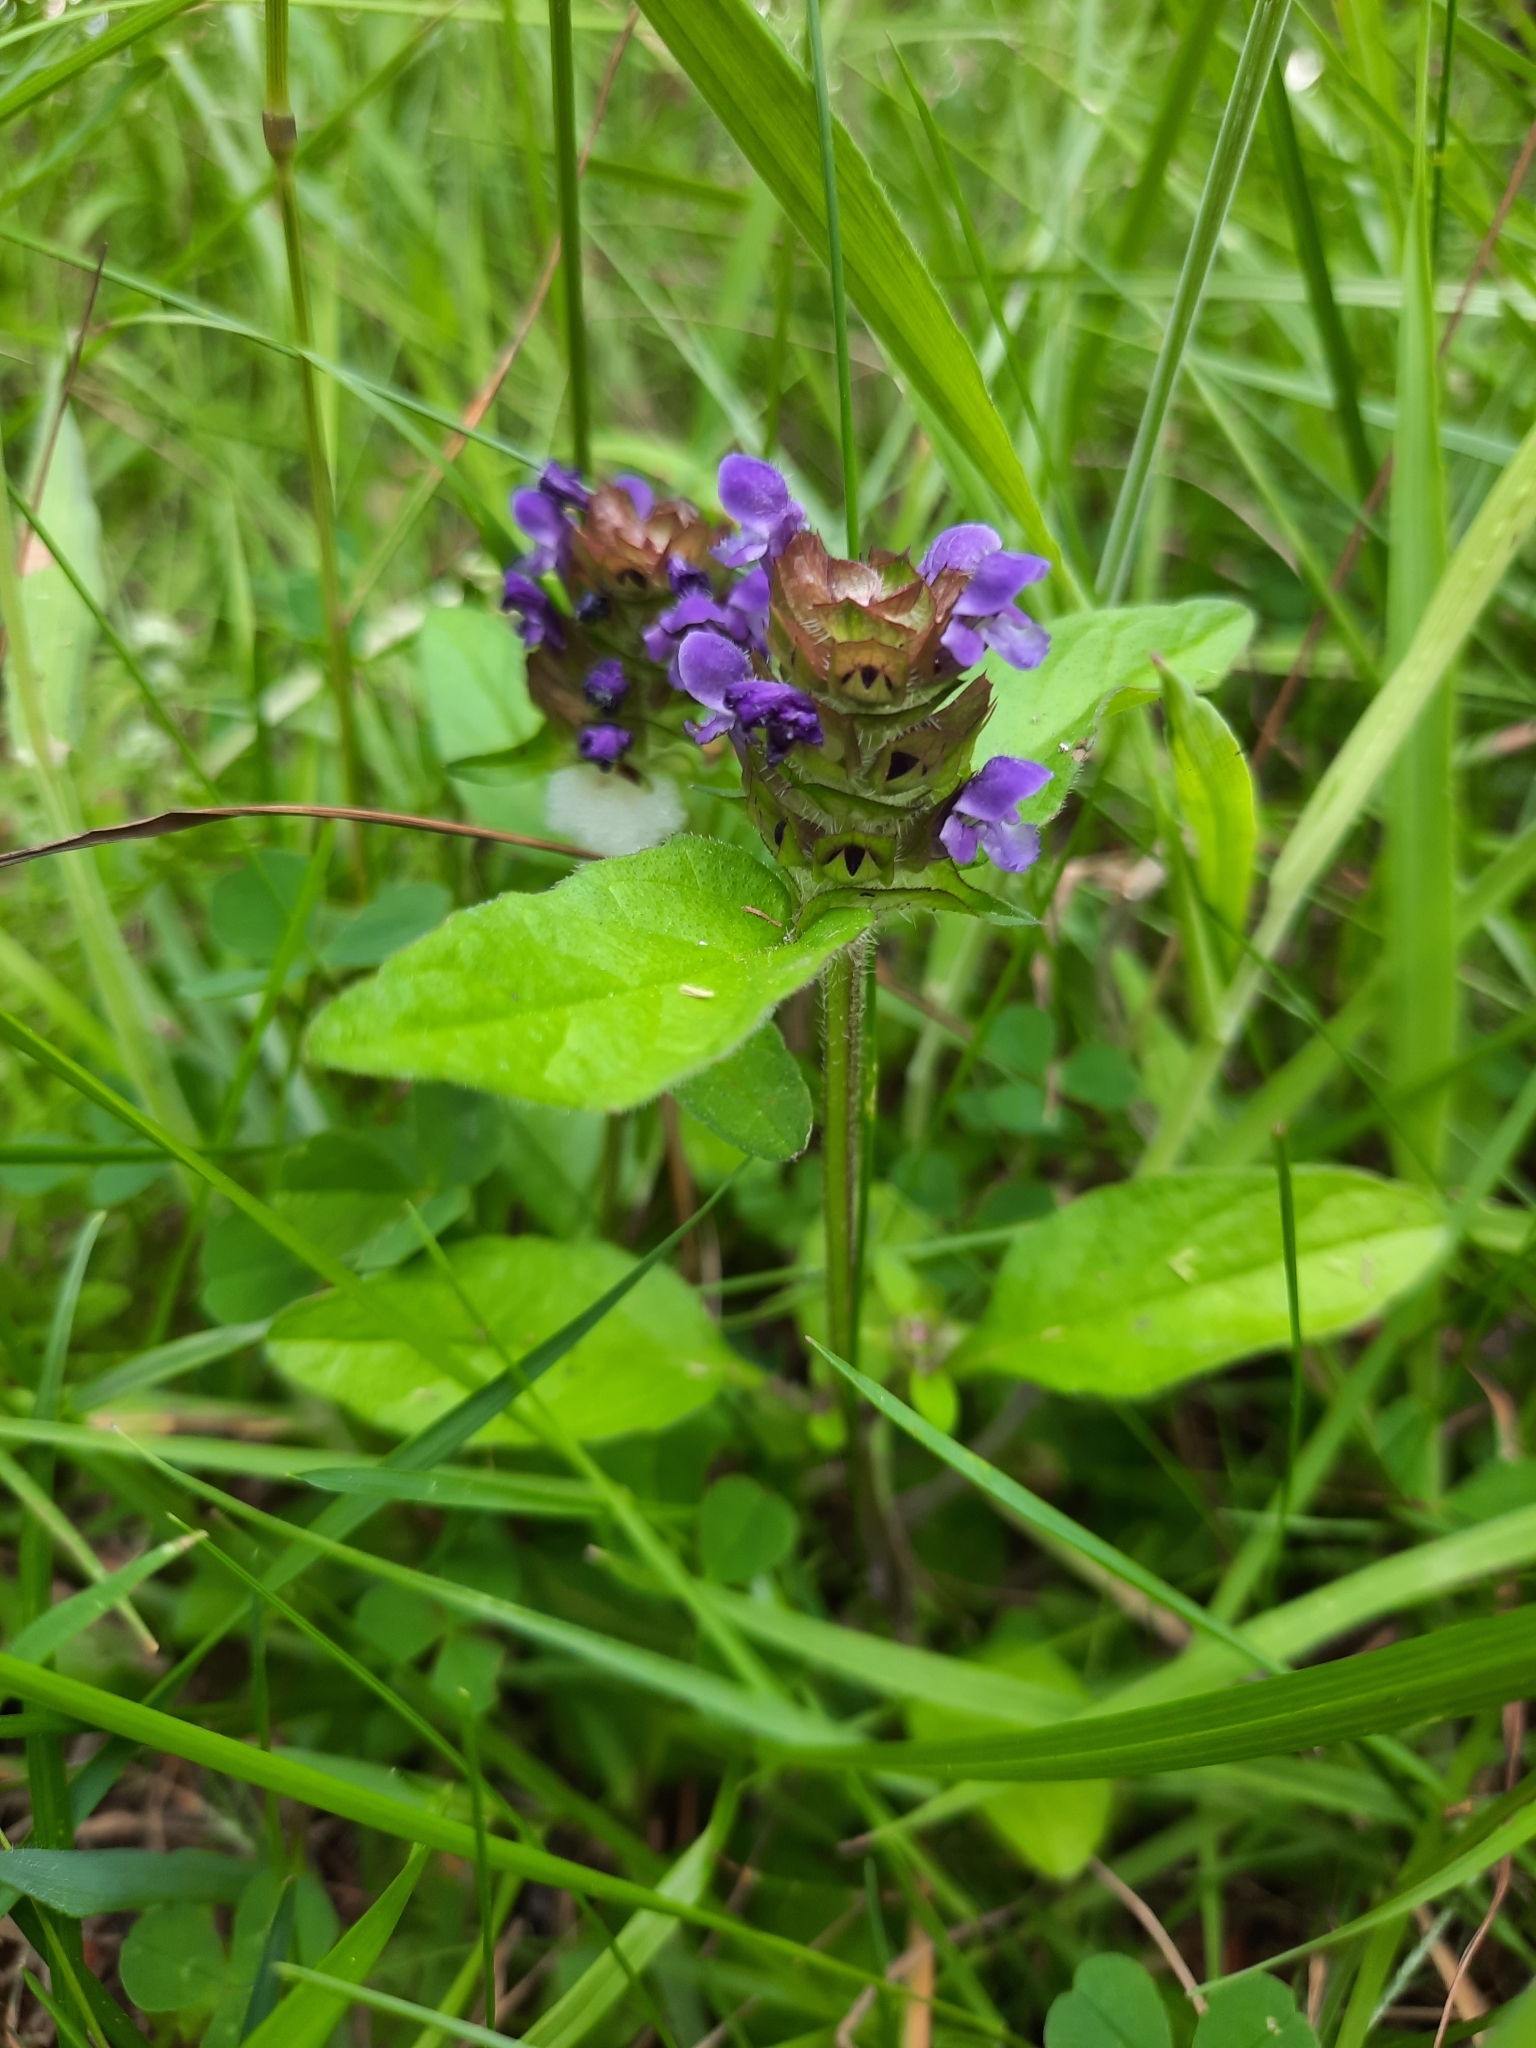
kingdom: Plantae
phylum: Tracheophyta
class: Magnoliopsida
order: Lamiales
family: Lamiaceae
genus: Prunella
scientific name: Prunella vulgaris
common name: Heal-all
